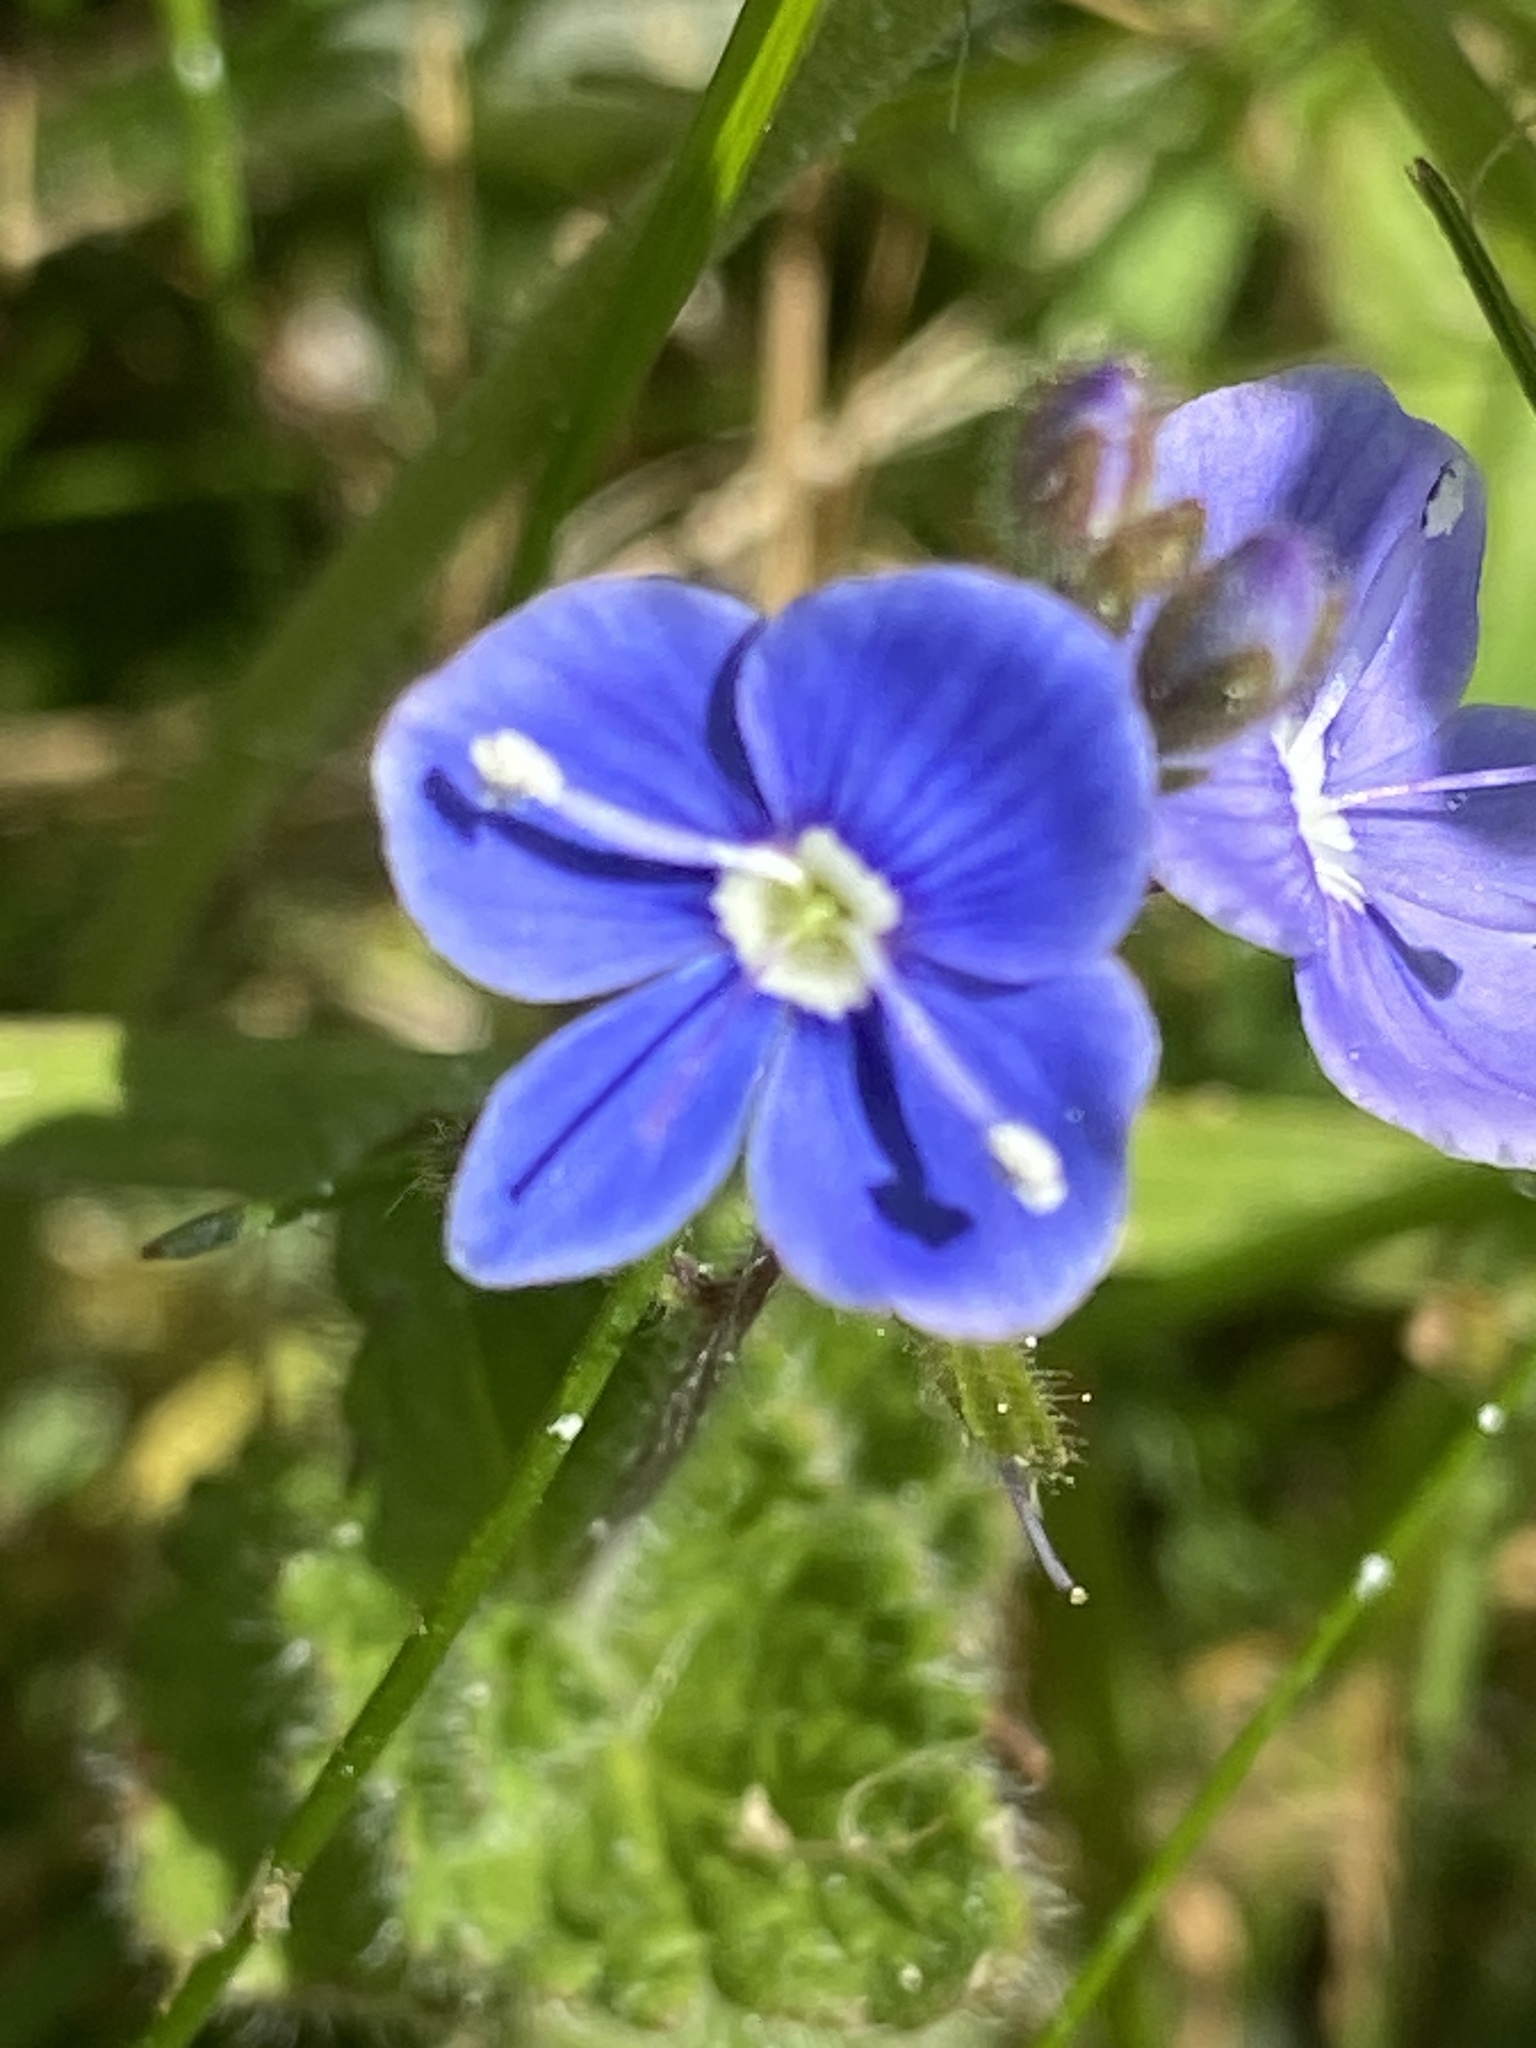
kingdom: Plantae
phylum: Tracheophyta
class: Magnoliopsida
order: Lamiales
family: Plantaginaceae
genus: Veronica
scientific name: Veronica chamaedrys
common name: Germander speedwell
